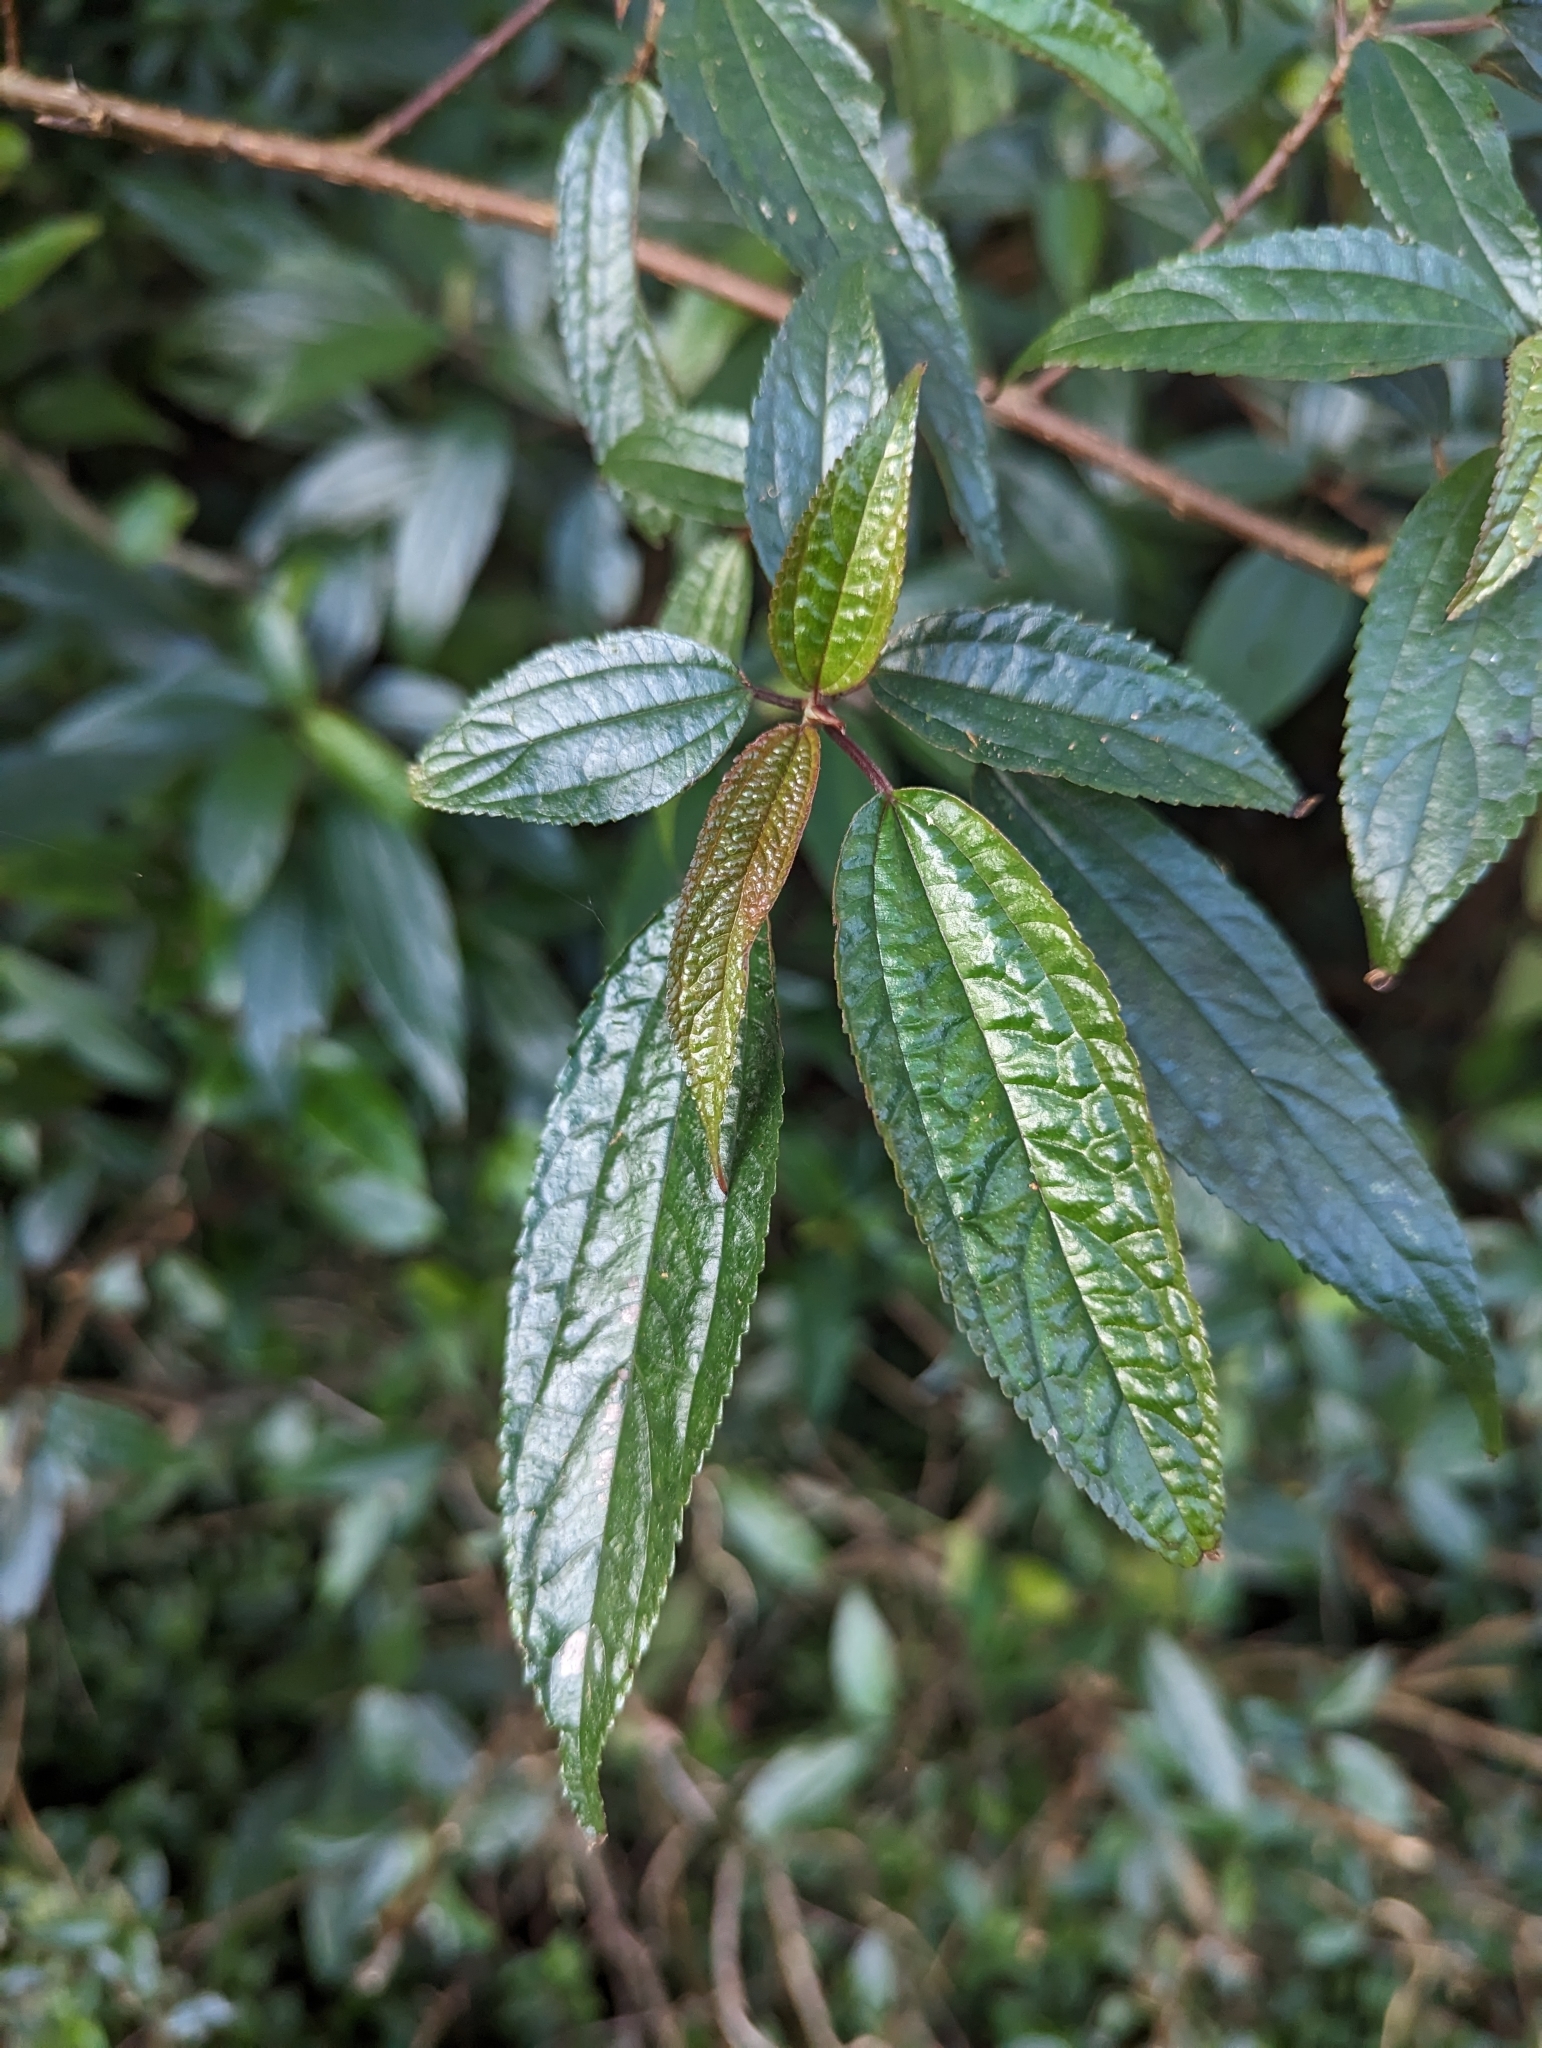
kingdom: Plantae
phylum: Tracheophyta
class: Magnoliopsida
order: Rosales
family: Urticaceae
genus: Oreocnide
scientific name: Oreocnide pedunculata
